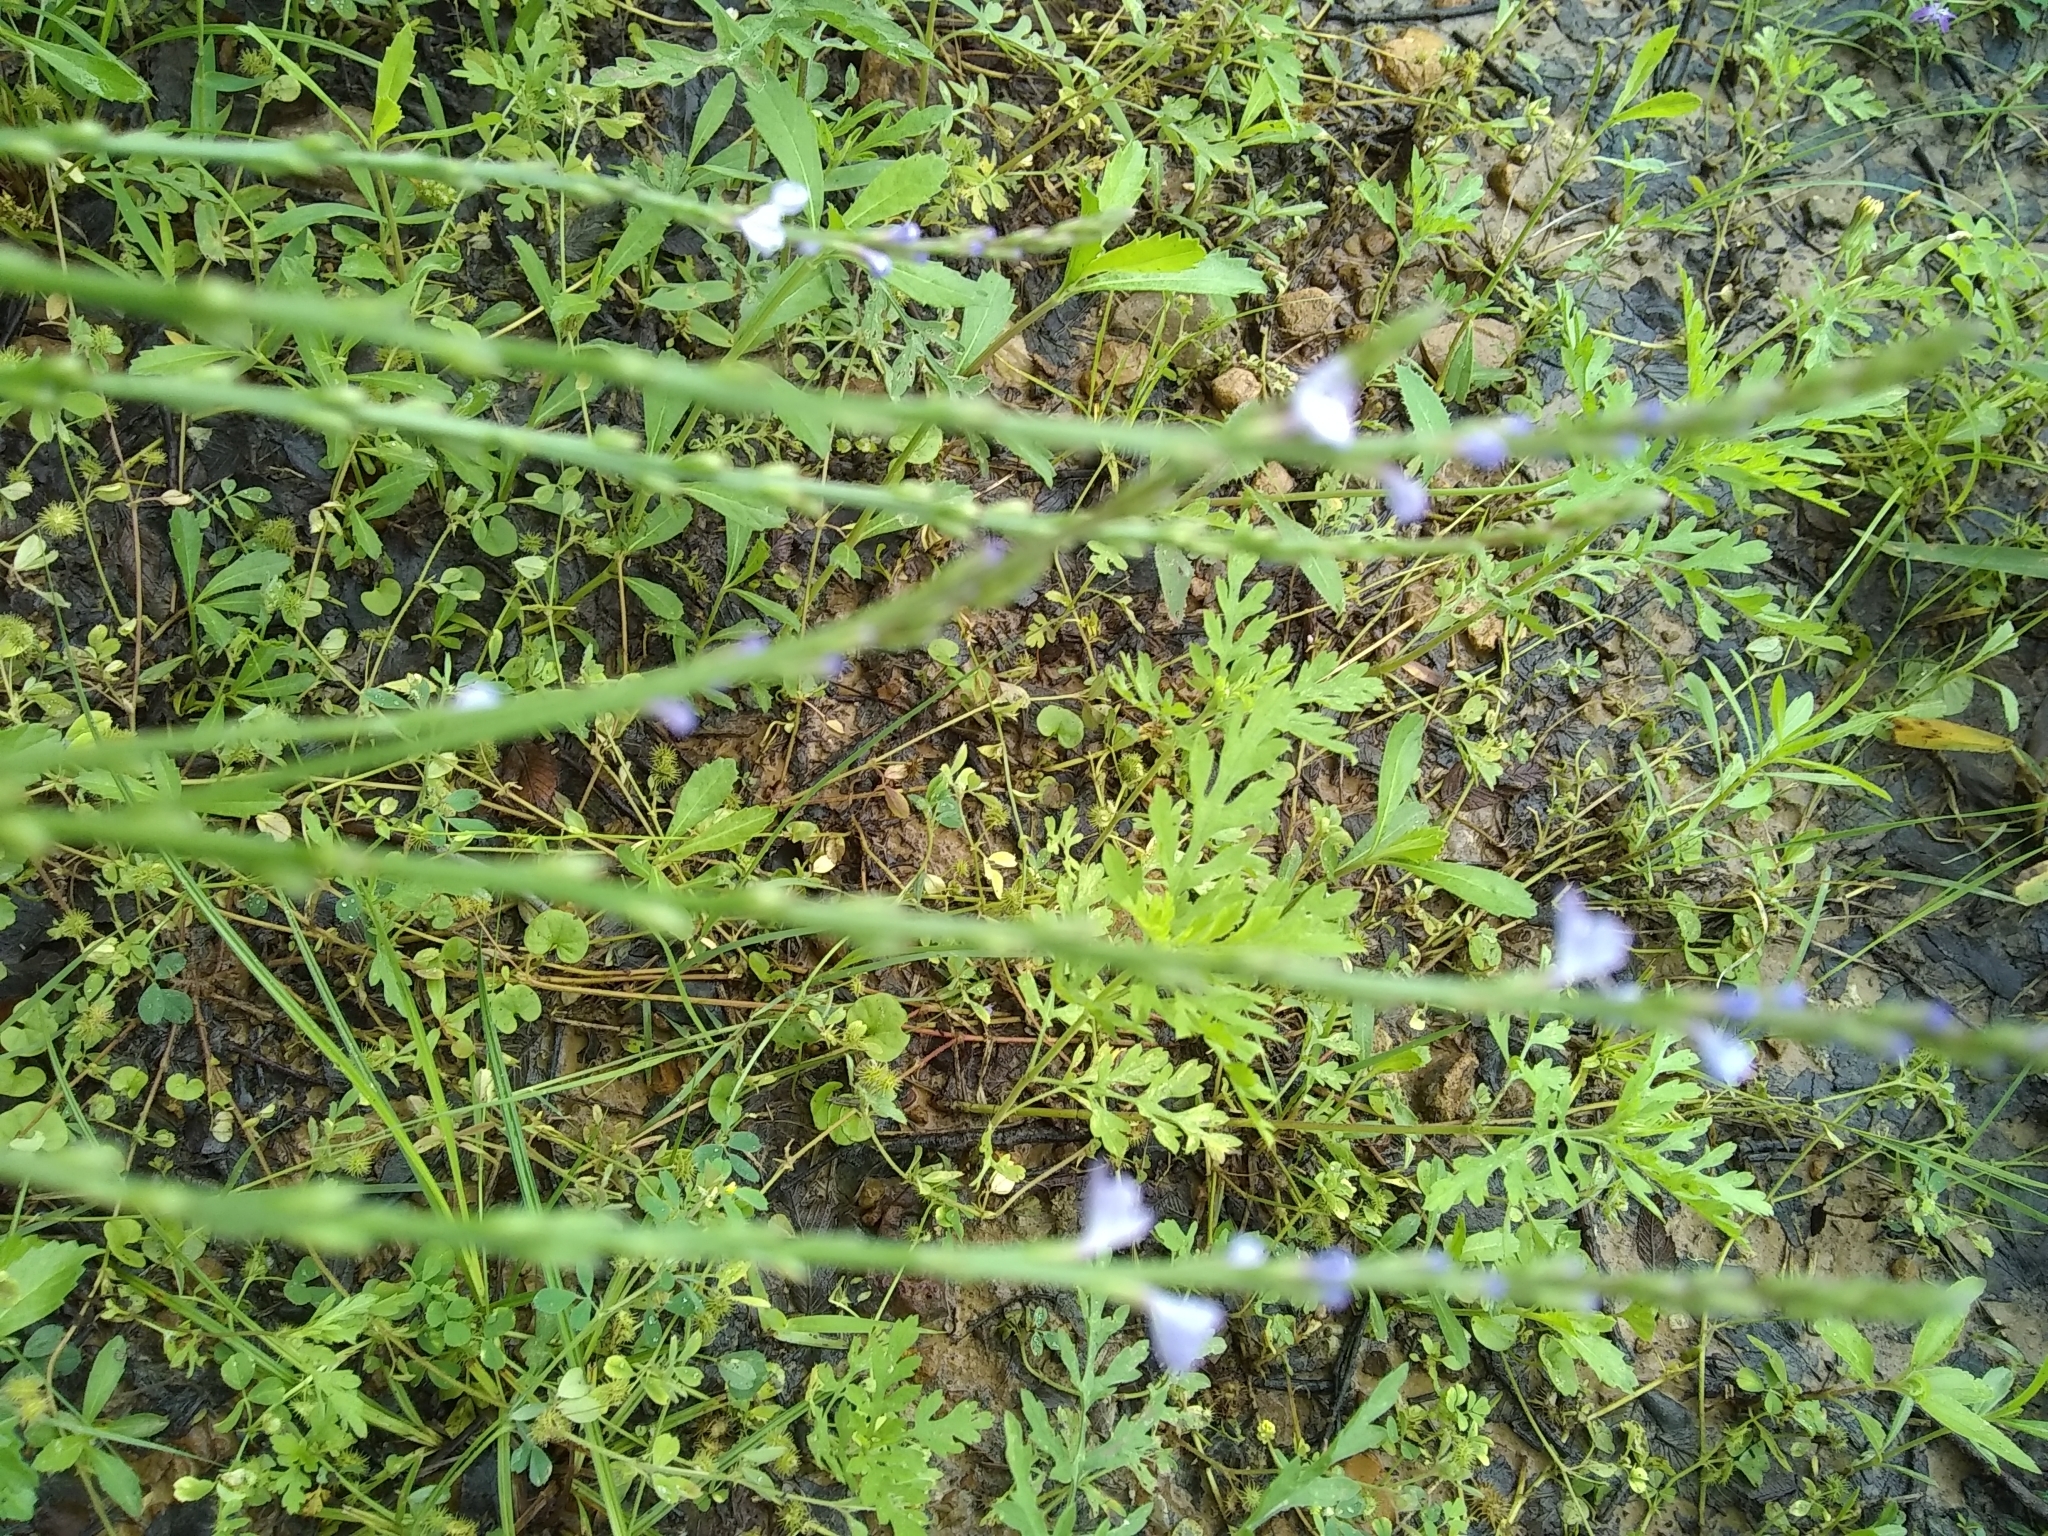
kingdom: Plantae
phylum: Tracheophyta
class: Magnoliopsida
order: Lamiales
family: Verbenaceae
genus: Verbena
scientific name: Verbena halei
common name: Texas vervain
